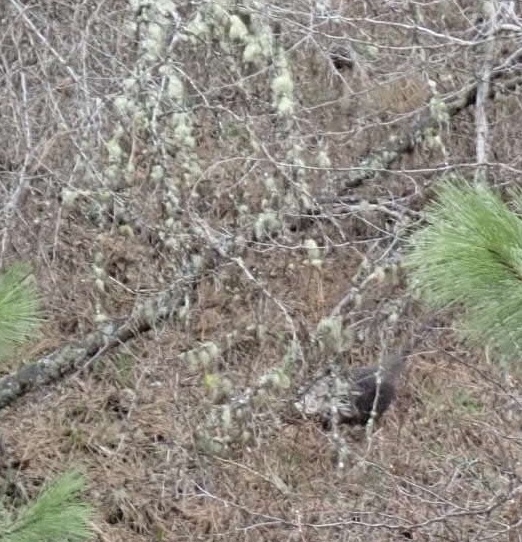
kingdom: Animalia
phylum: Chordata
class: Aves
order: Galliformes
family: Phasianidae
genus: Meleagris
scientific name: Meleagris gallopavo
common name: Wild turkey
